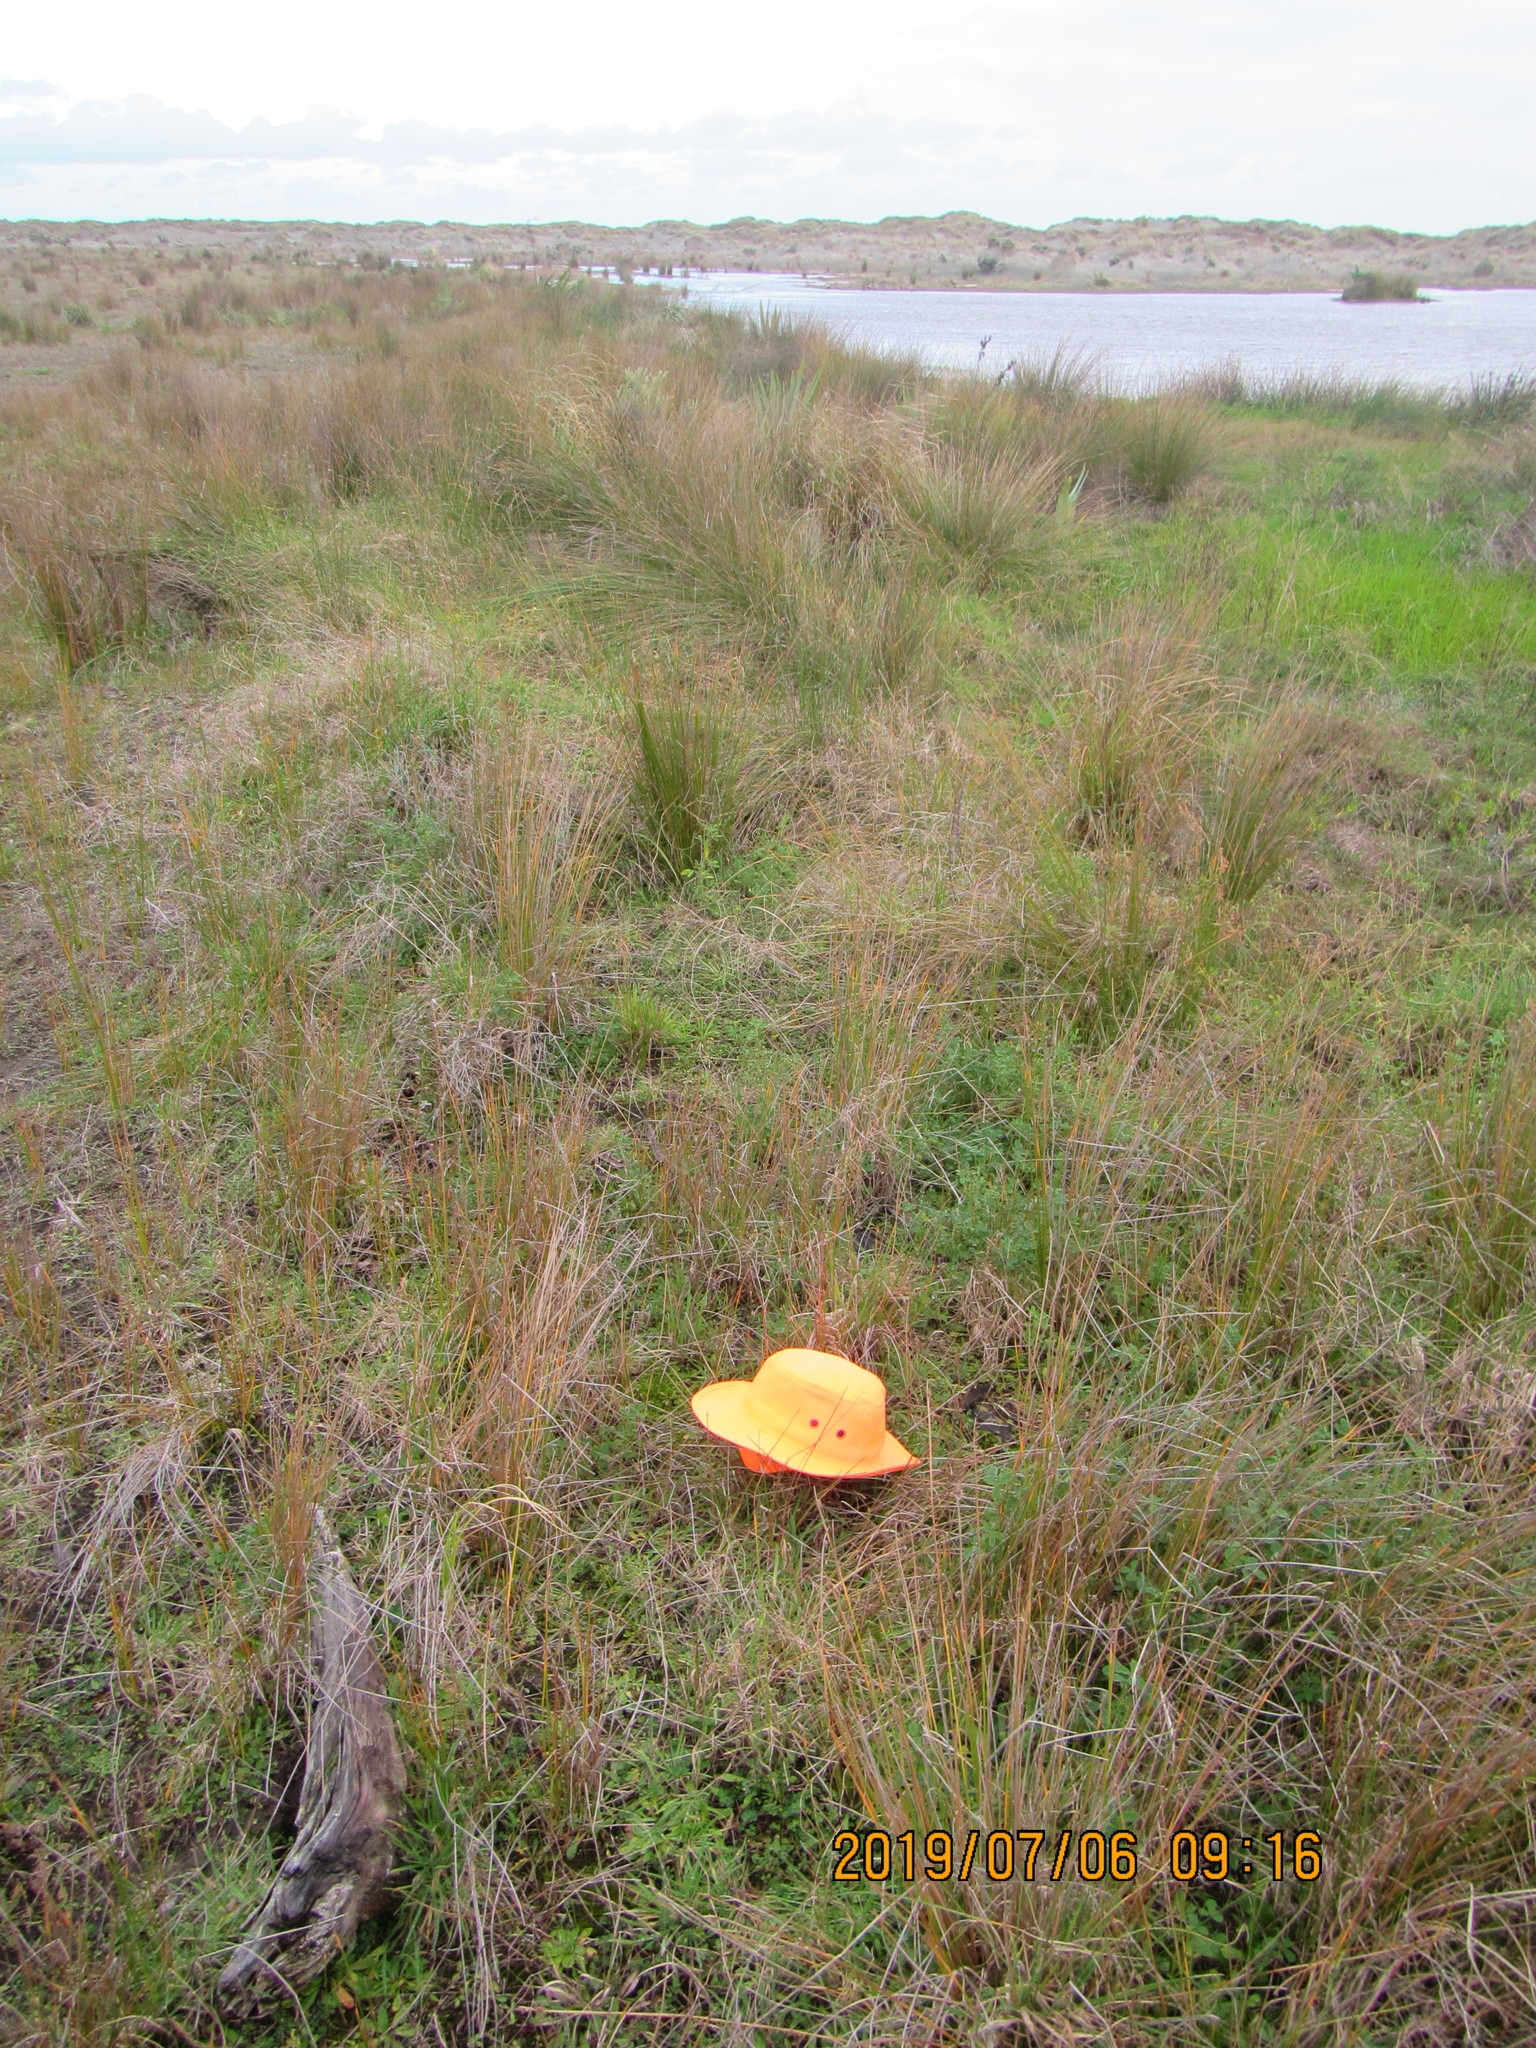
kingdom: Plantae
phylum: Bryophyta
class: Bryopsida
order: Dicranales
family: Leucobryaceae
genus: Campylopus
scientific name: Campylopus introflexus
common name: Heath star moss
